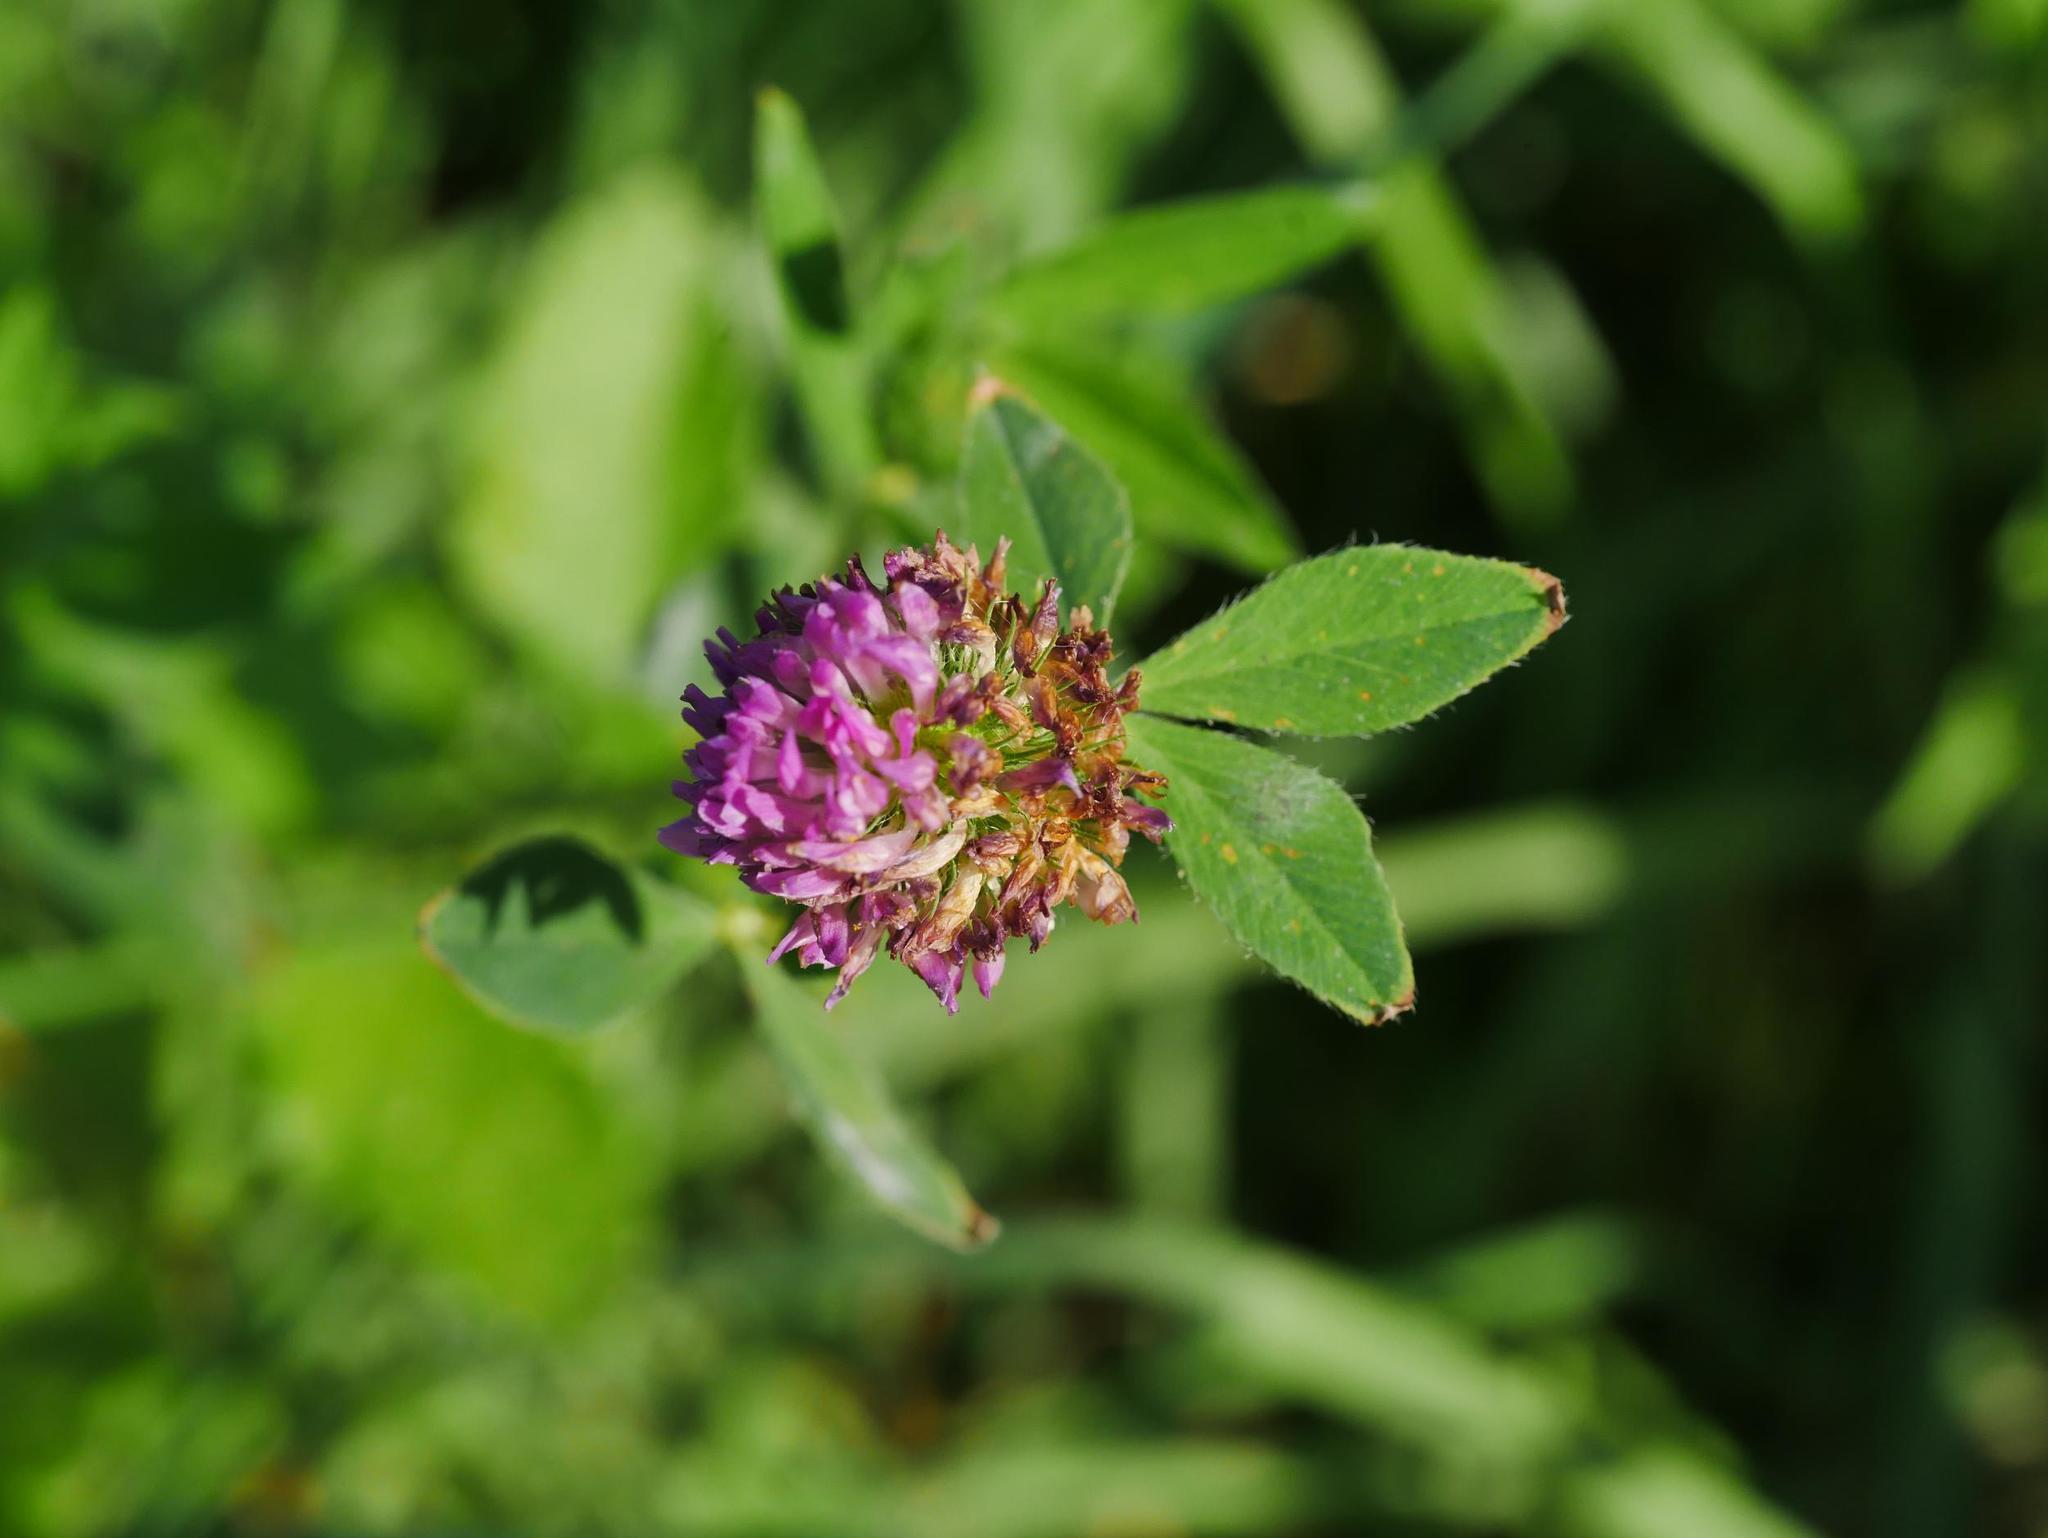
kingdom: Plantae
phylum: Tracheophyta
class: Magnoliopsida
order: Fabales
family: Fabaceae
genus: Trifolium
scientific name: Trifolium pratense
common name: Red clover
